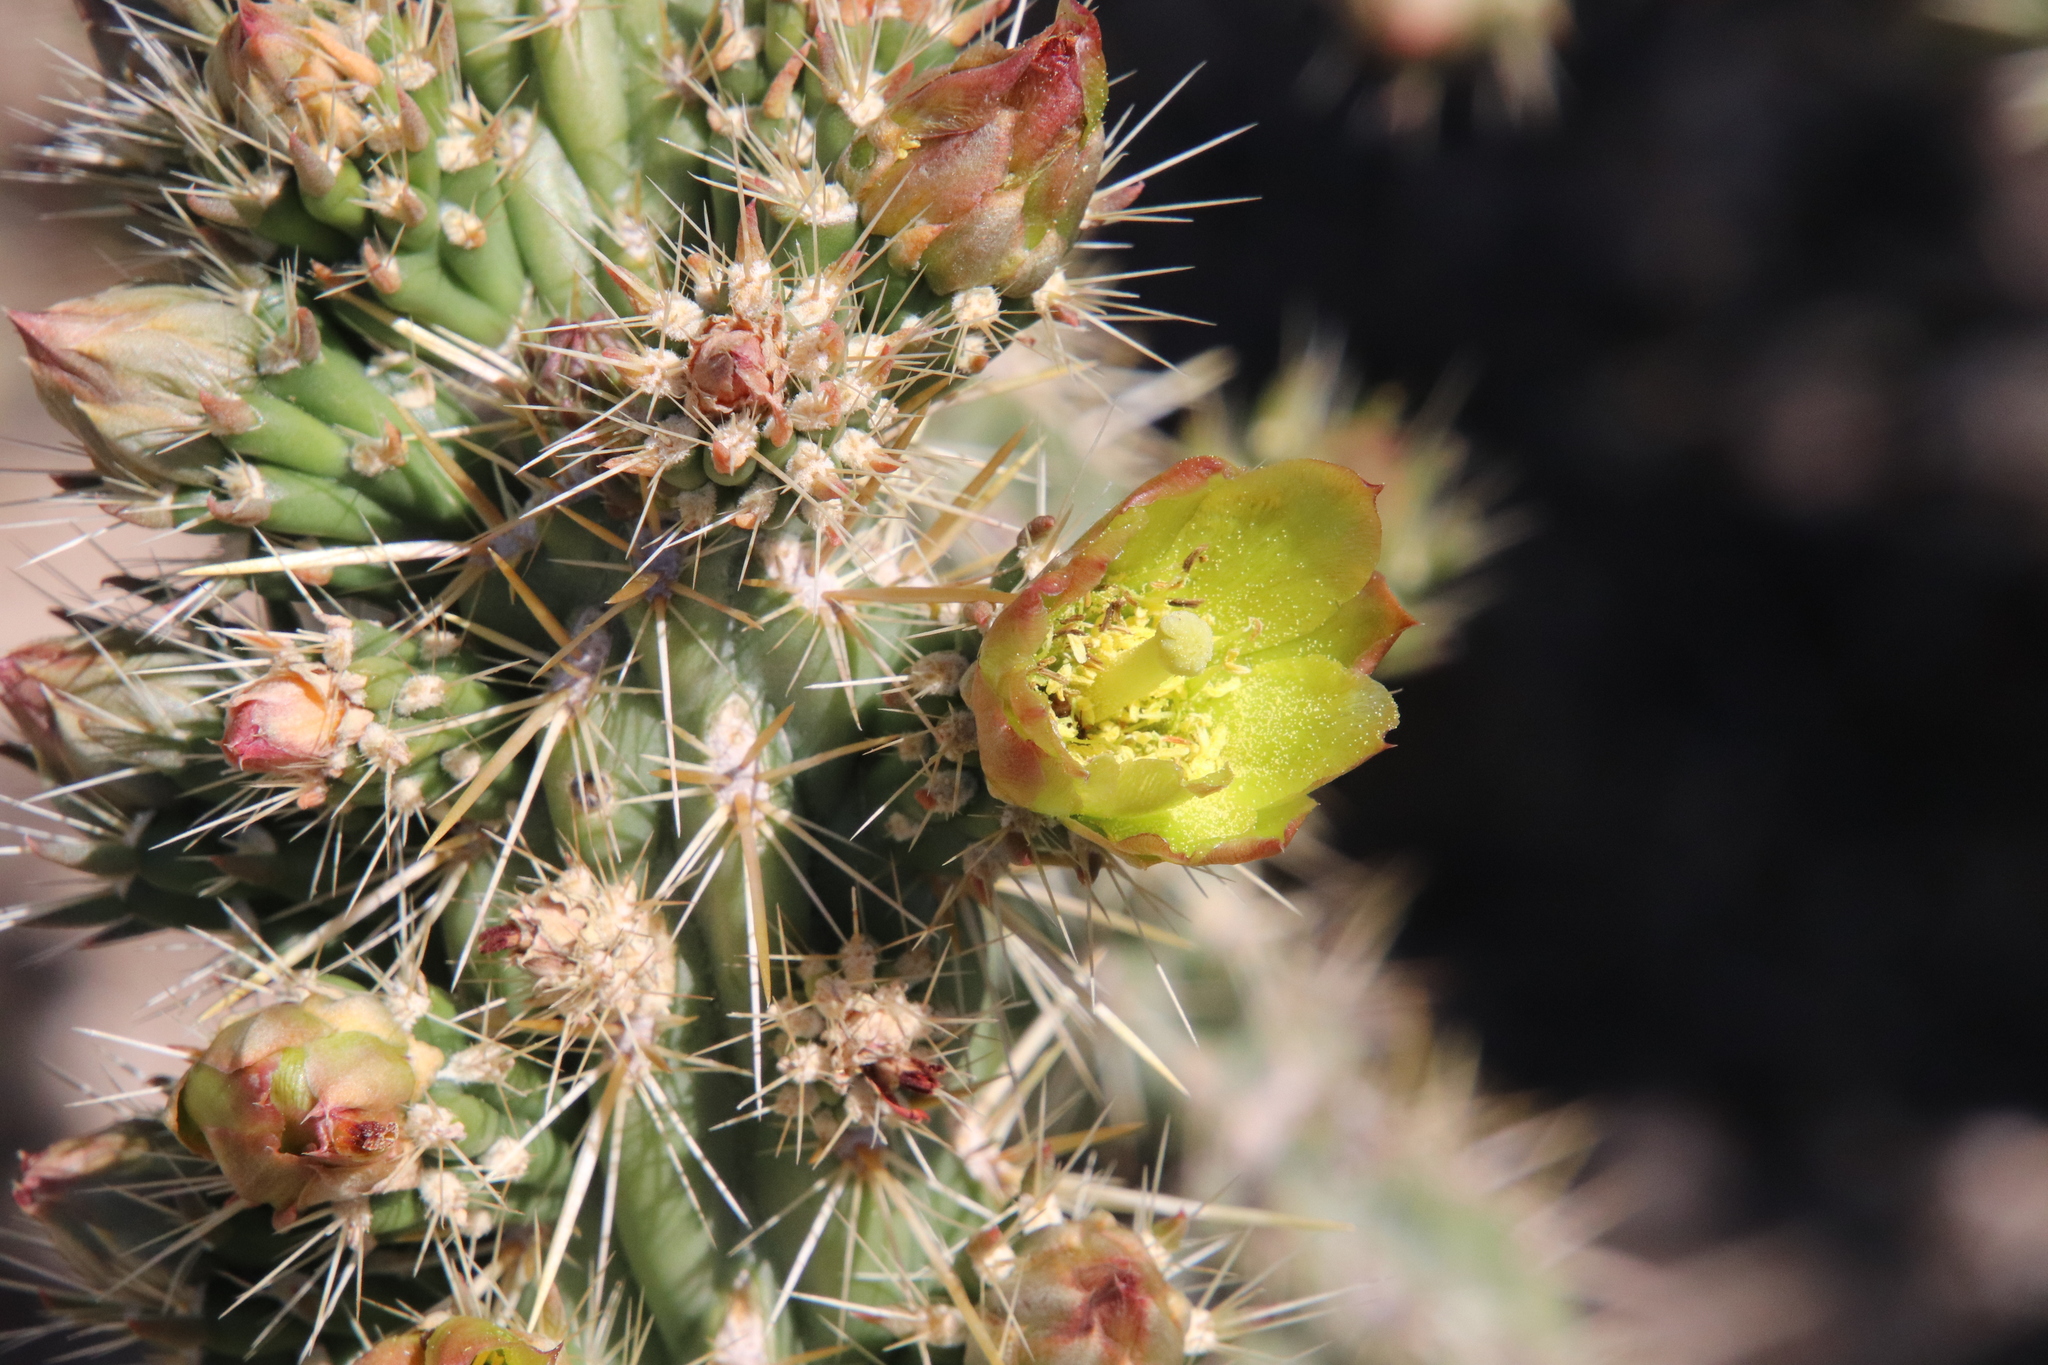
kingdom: Plantae
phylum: Tracheophyta
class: Magnoliopsida
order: Caryophyllales
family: Cactaceae
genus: Cylindropuntia
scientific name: Cylindropuntia bernardina
